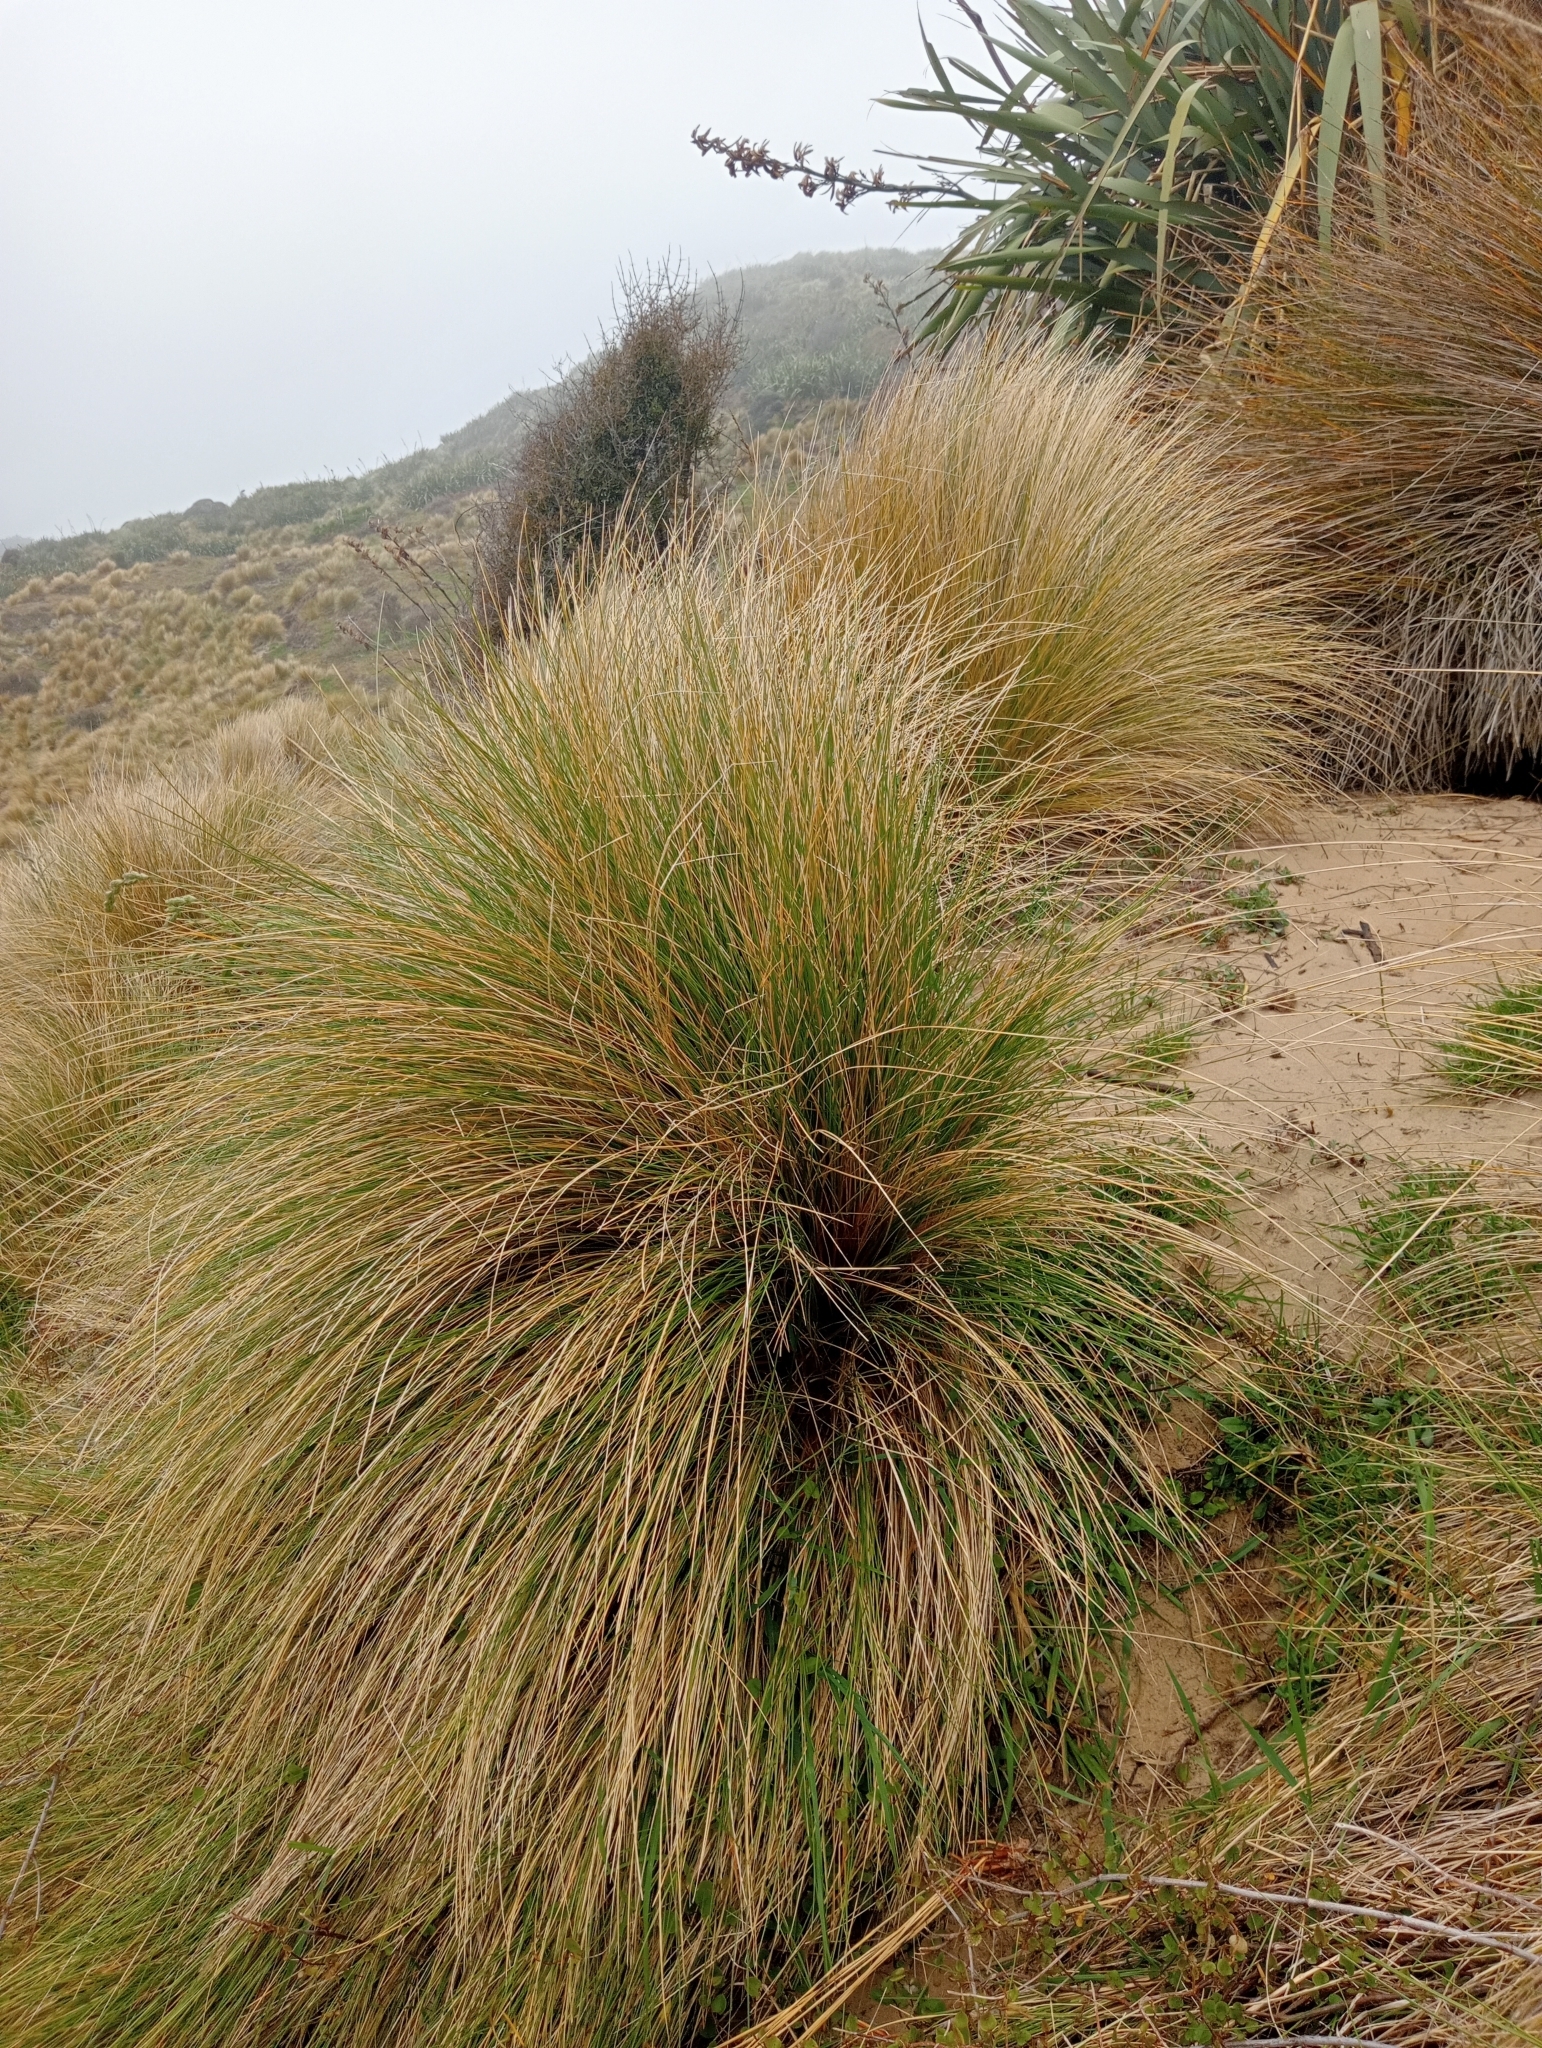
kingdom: Plantae
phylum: Tracheophyta
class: Liliopsida
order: Poales
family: Poaceae
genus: Poa
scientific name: Poa cita
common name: Silver tussock
